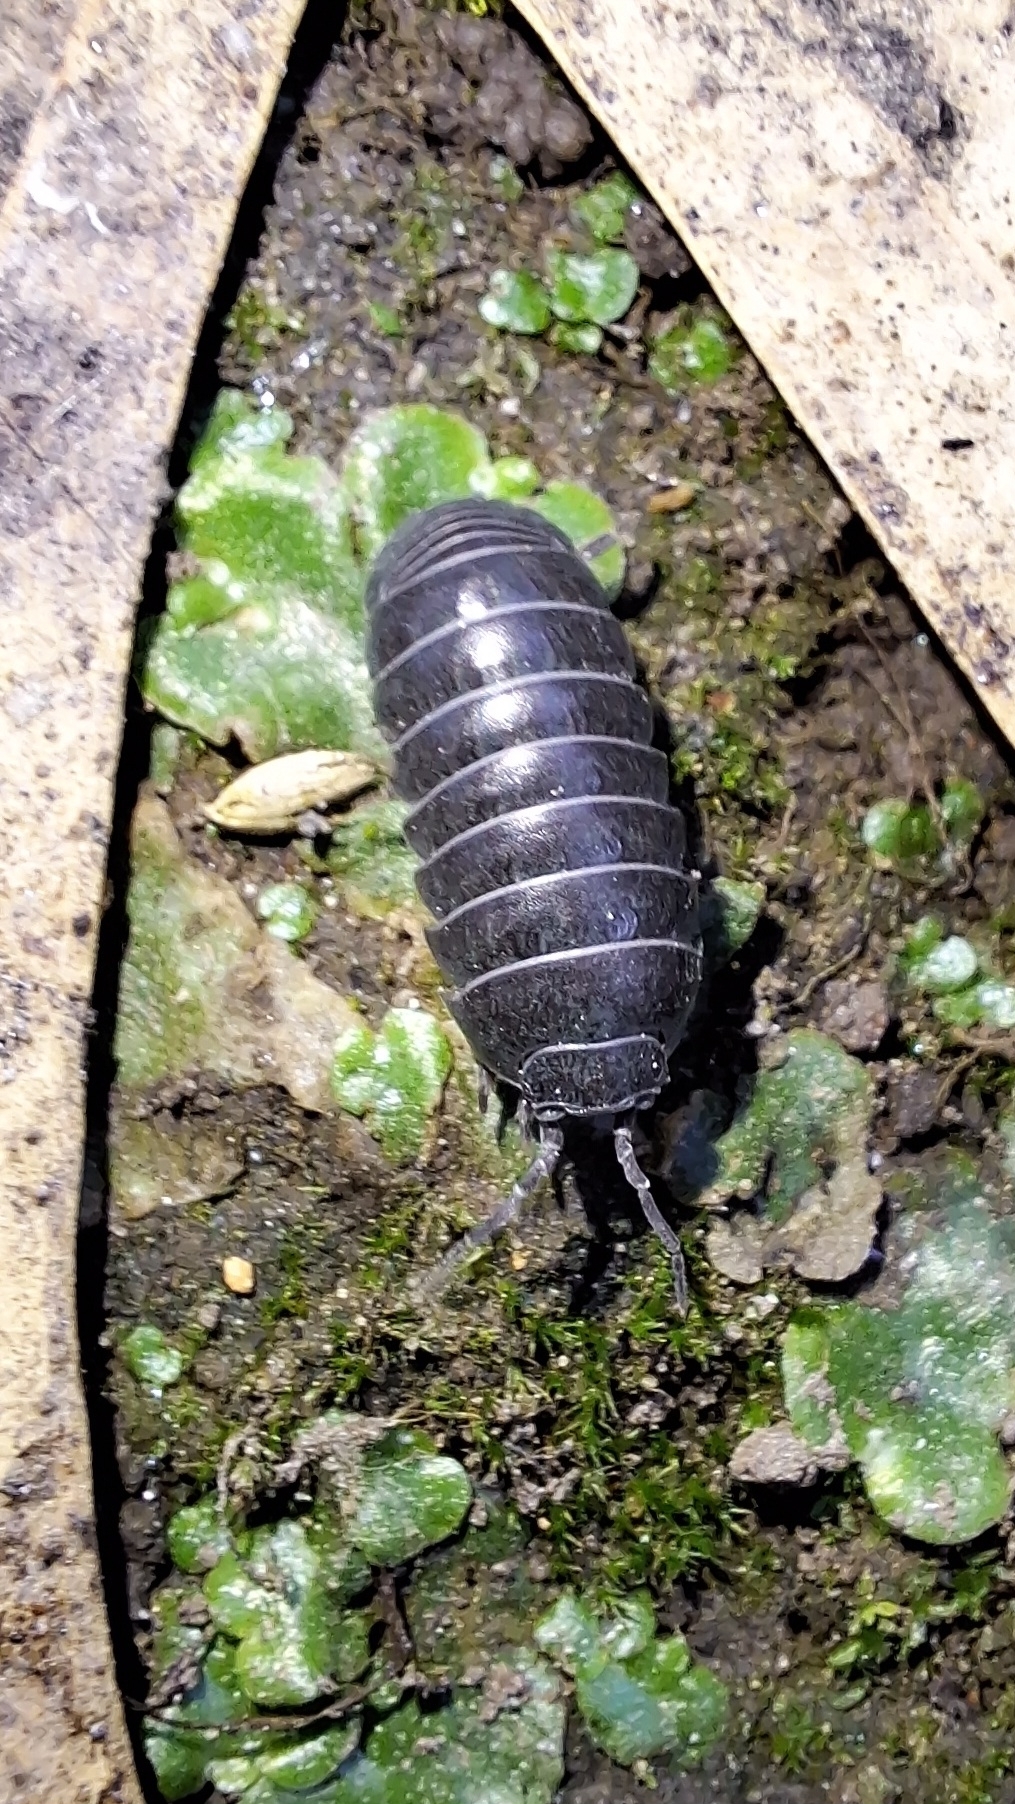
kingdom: Animalia
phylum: Arthropoda
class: Malacostraca
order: Isopoda
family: Armadillidiidae
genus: Armadillidium
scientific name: Armadillidium vulgare
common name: Common pill woodlouse
